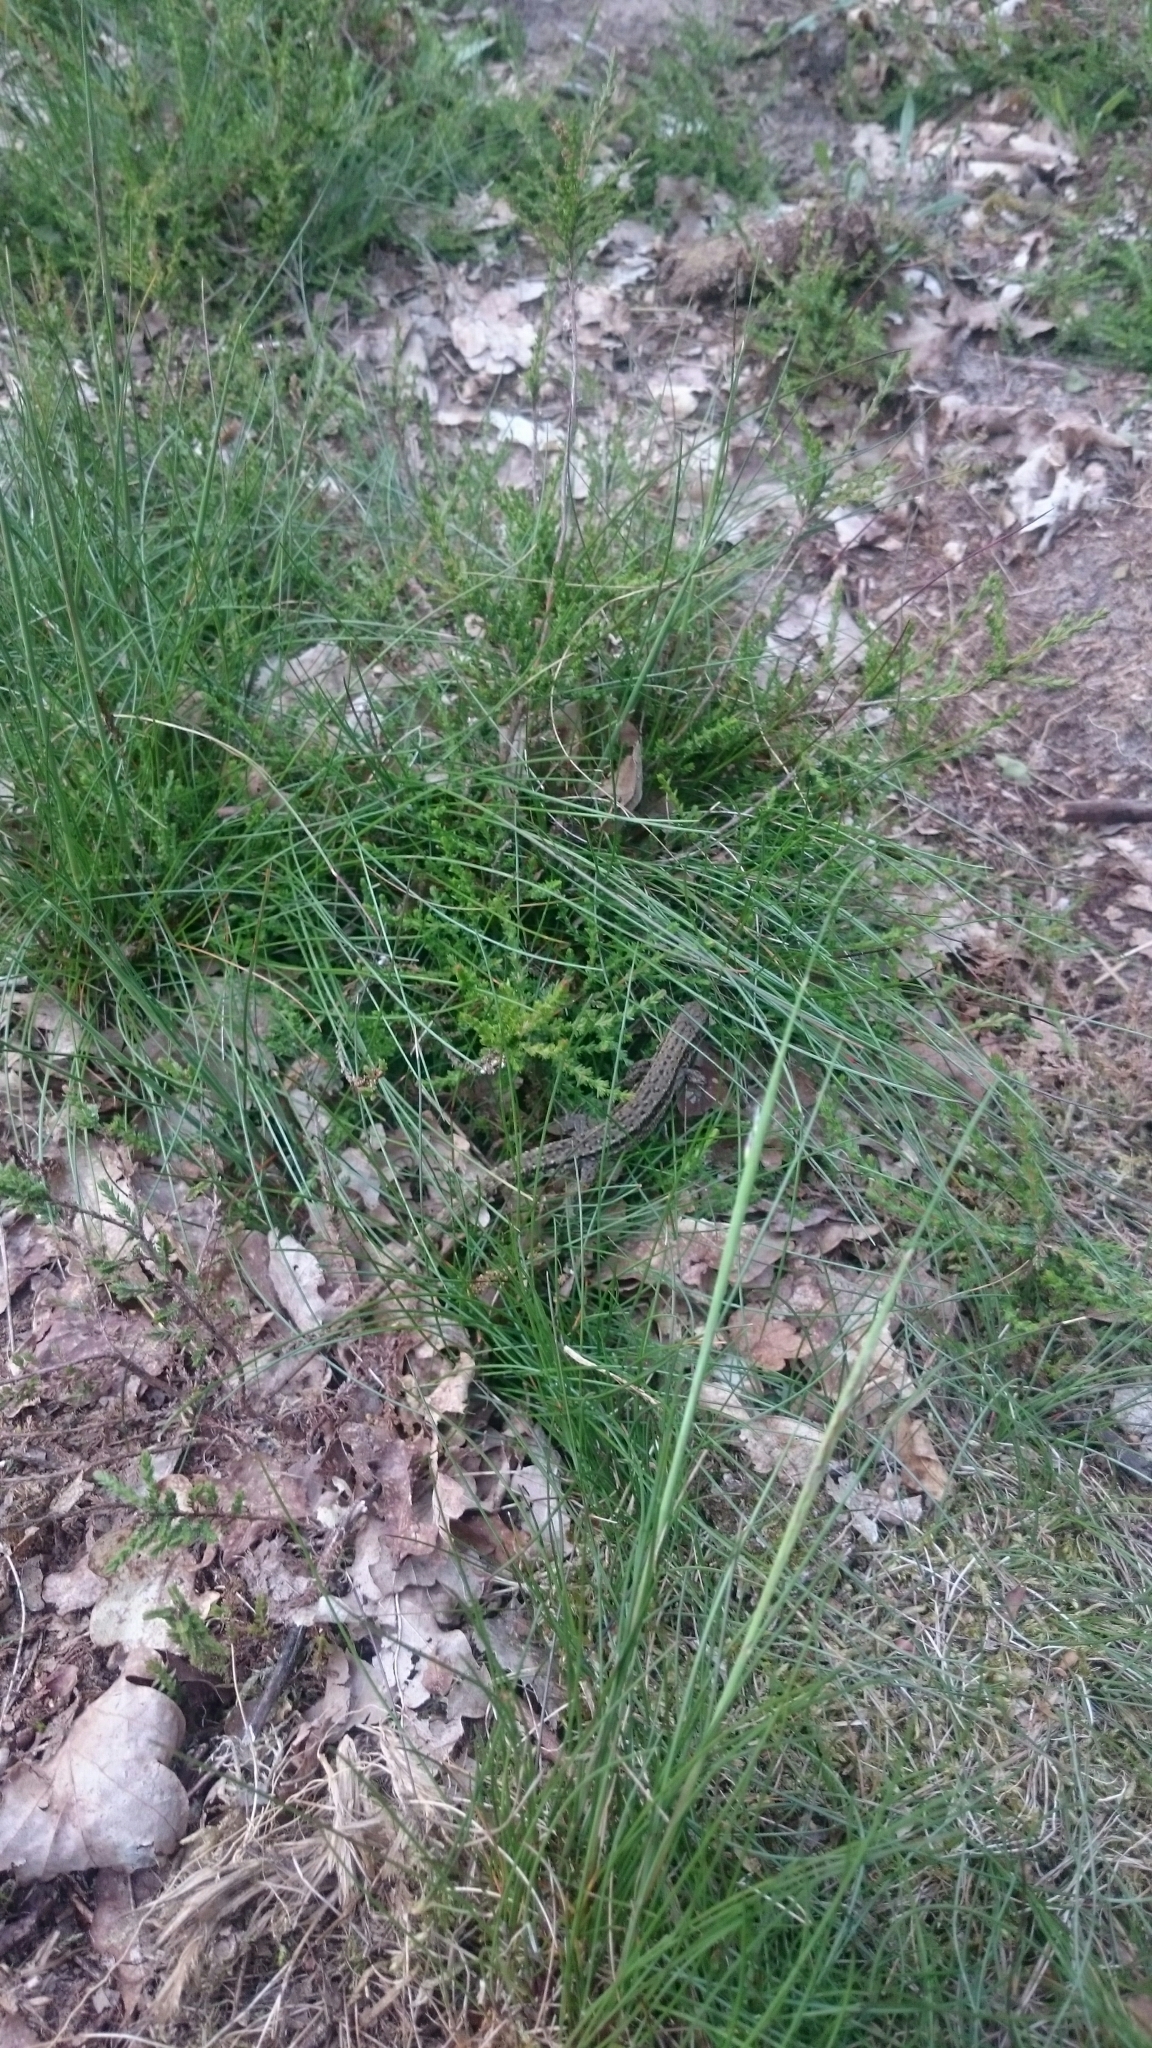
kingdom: Animalia
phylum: Chordata
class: Squamata
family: Lacertidae
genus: Zootoca
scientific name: Zootoca vivipara
